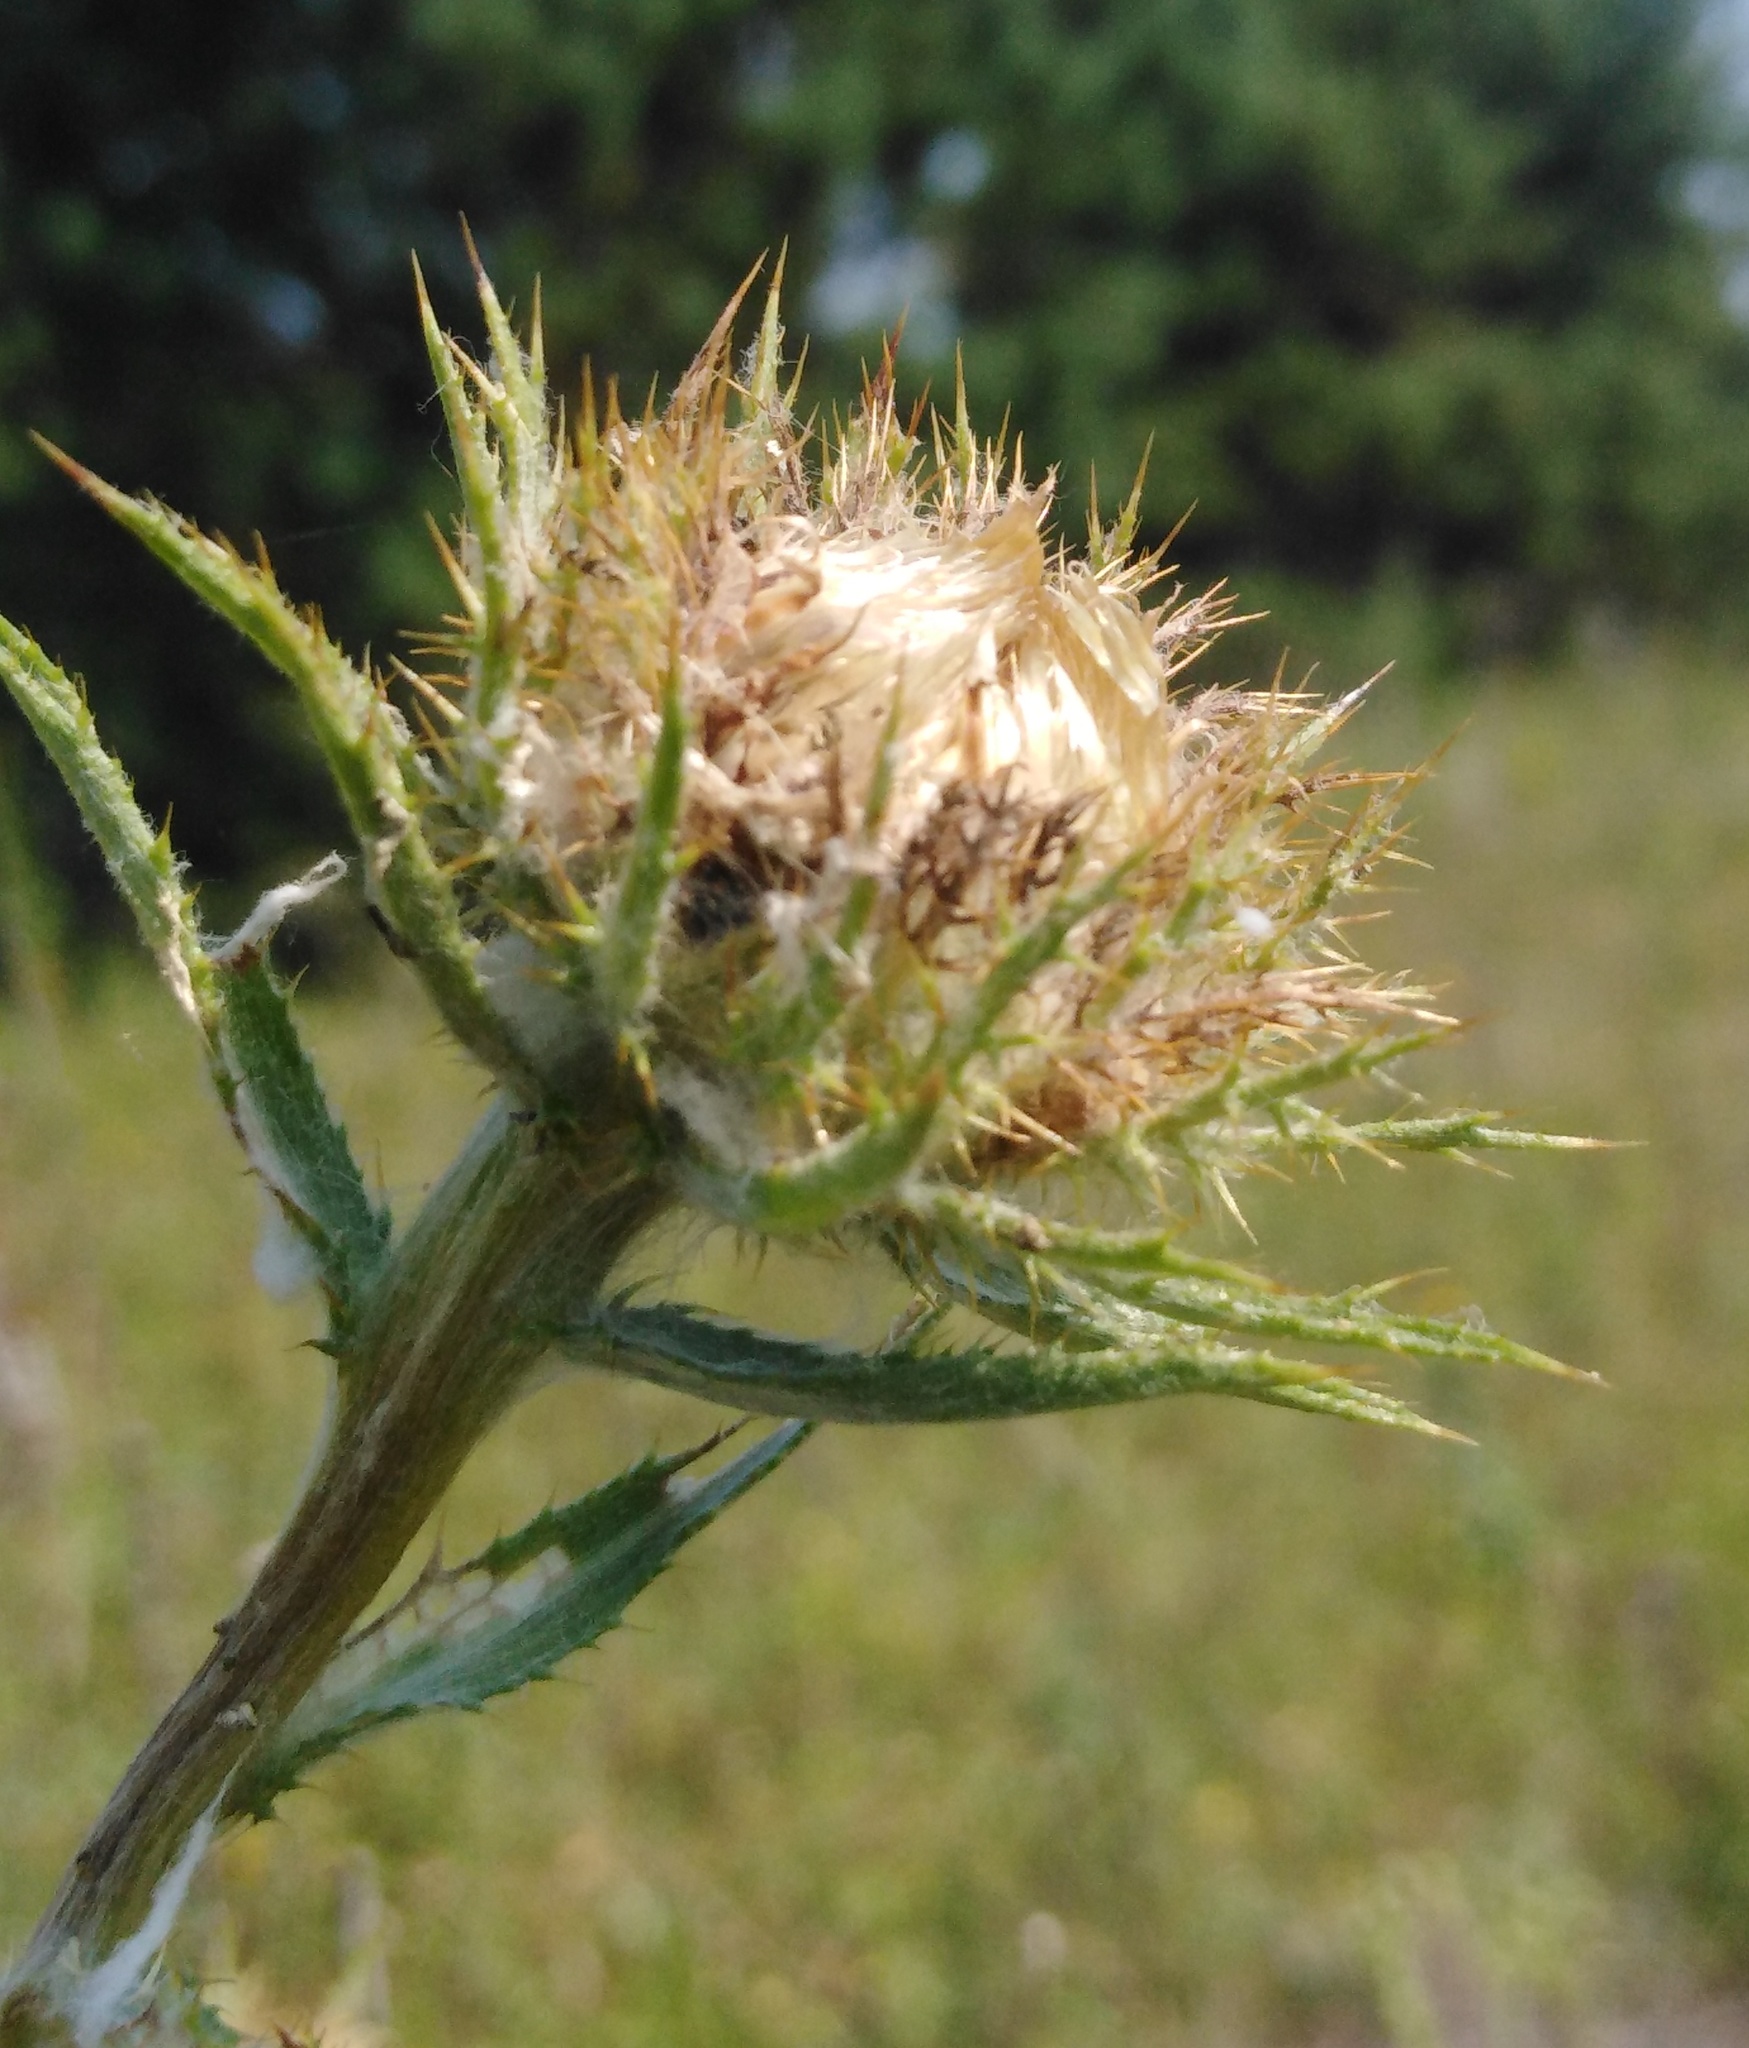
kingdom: Plantae
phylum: Tracheophyta
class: Magnoliopsida
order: Asterales
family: Asteraceae
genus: Carlina
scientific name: Carlina biebersteinii
